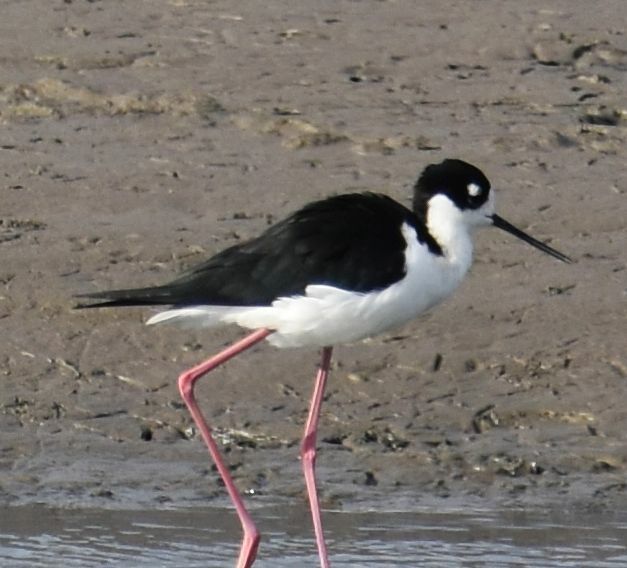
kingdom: Animalia
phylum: Chordata
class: Aves
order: Charadriiformes
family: Recurvirostridae
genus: Himantopus
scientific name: Himantopus mexicanus
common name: Black-necked stilt
